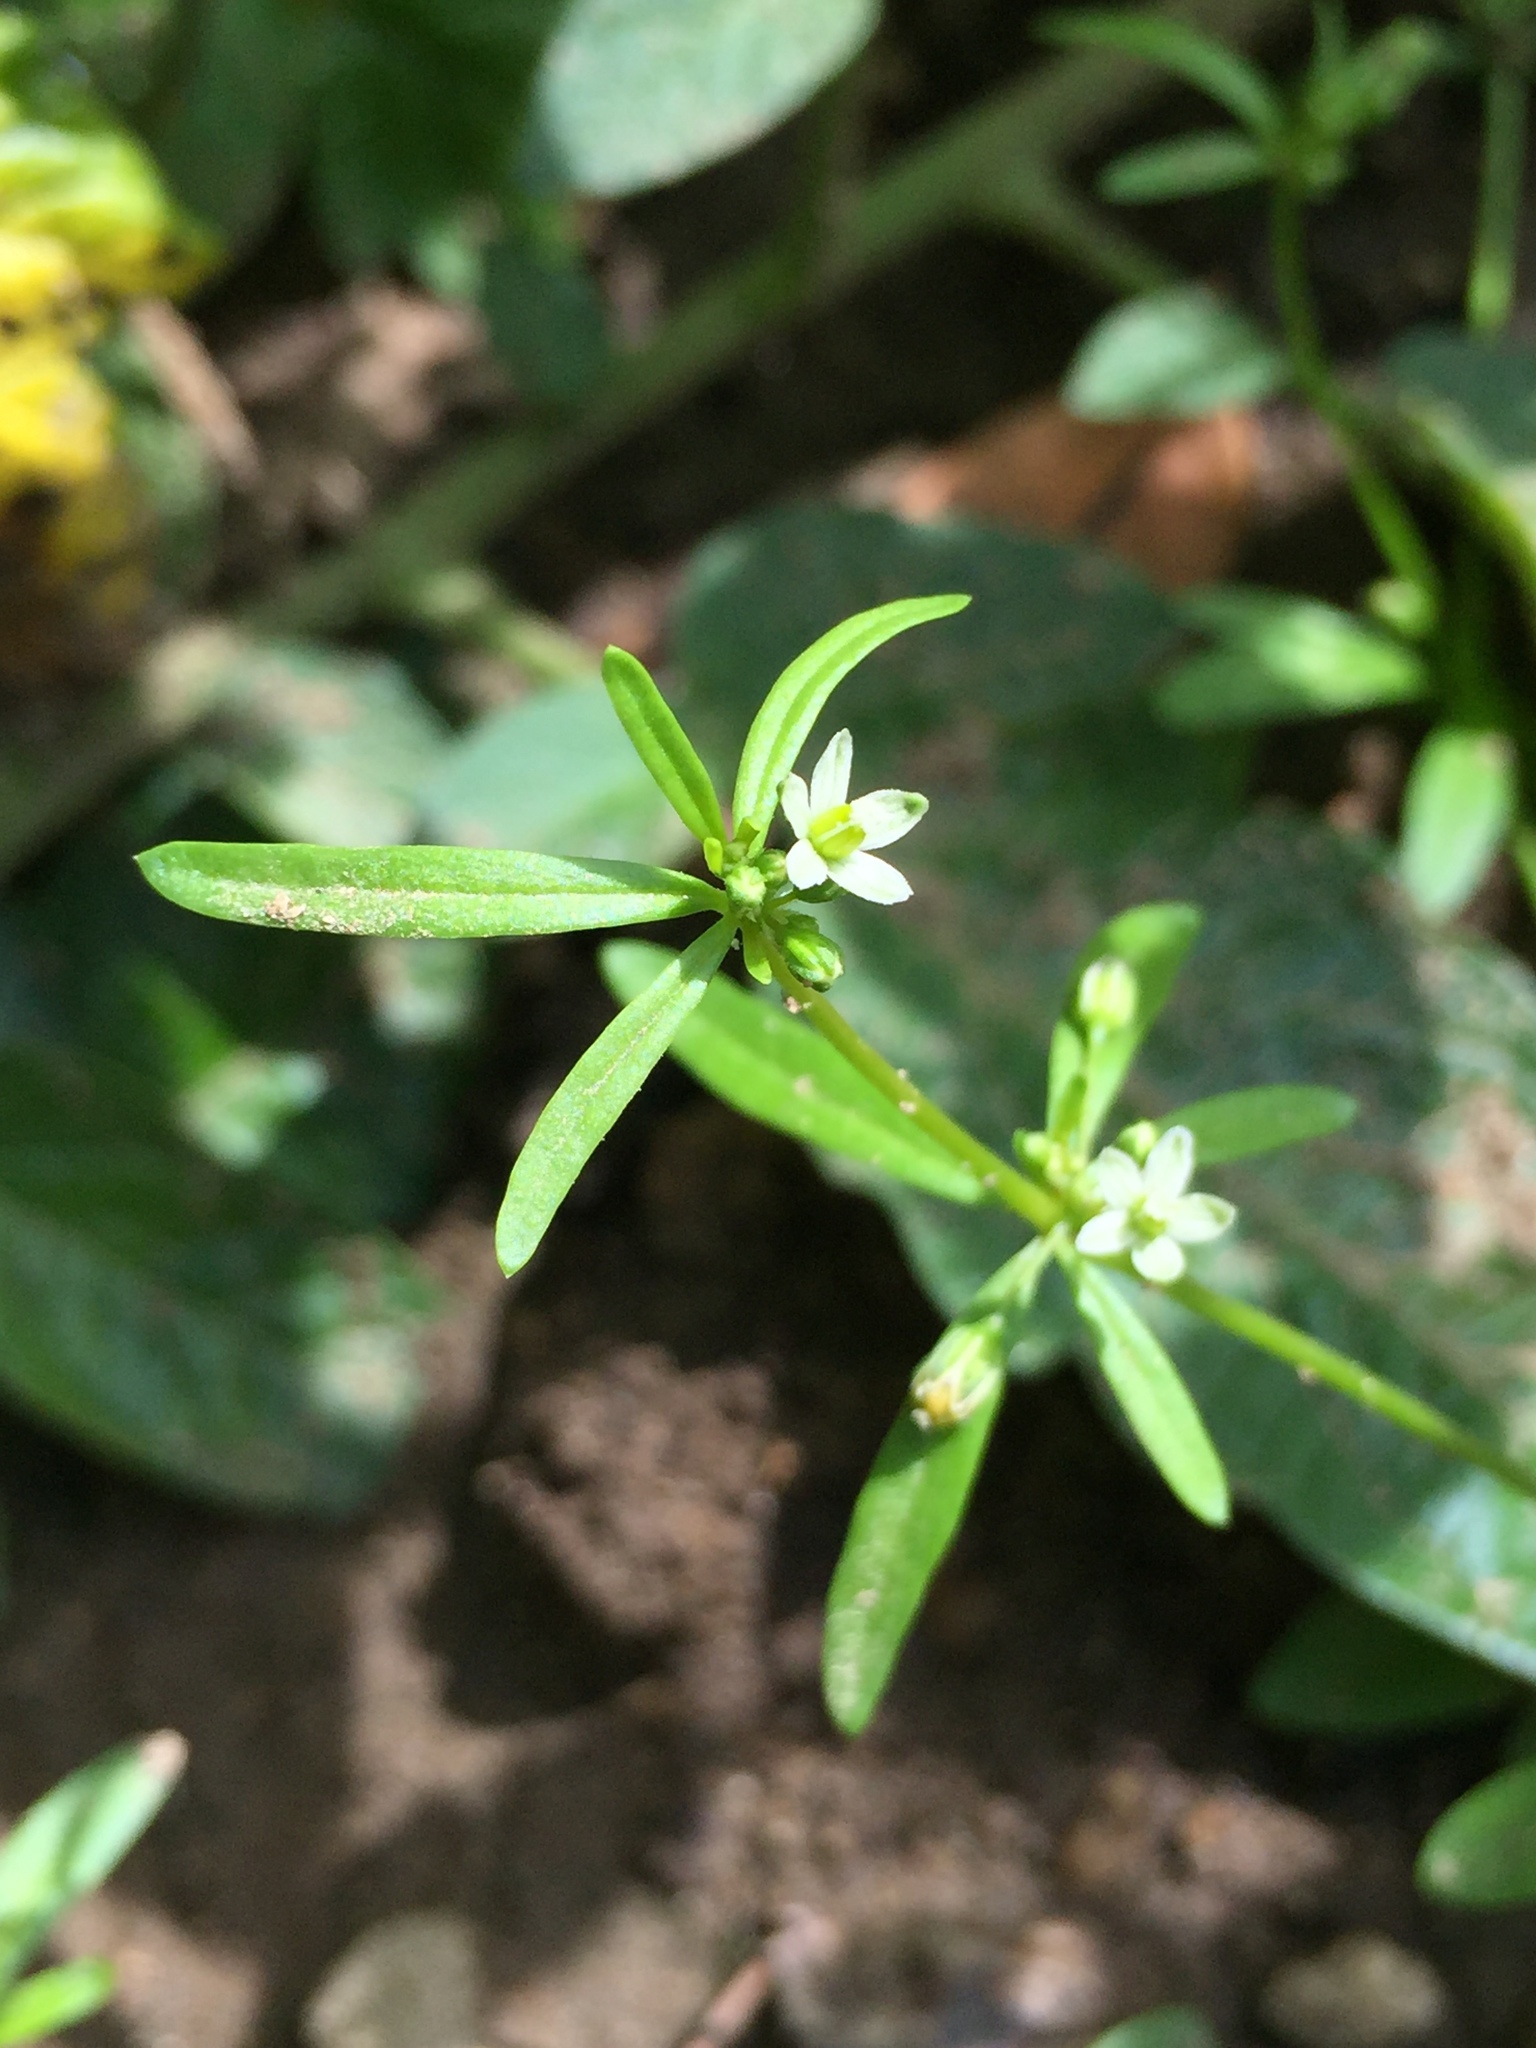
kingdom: Plantae
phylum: Tracheophyta
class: Magnoliopsida
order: Caryophyllales
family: Molluginaceae
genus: Mollugo
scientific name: Mollugo verticillata
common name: Green carpetweed
